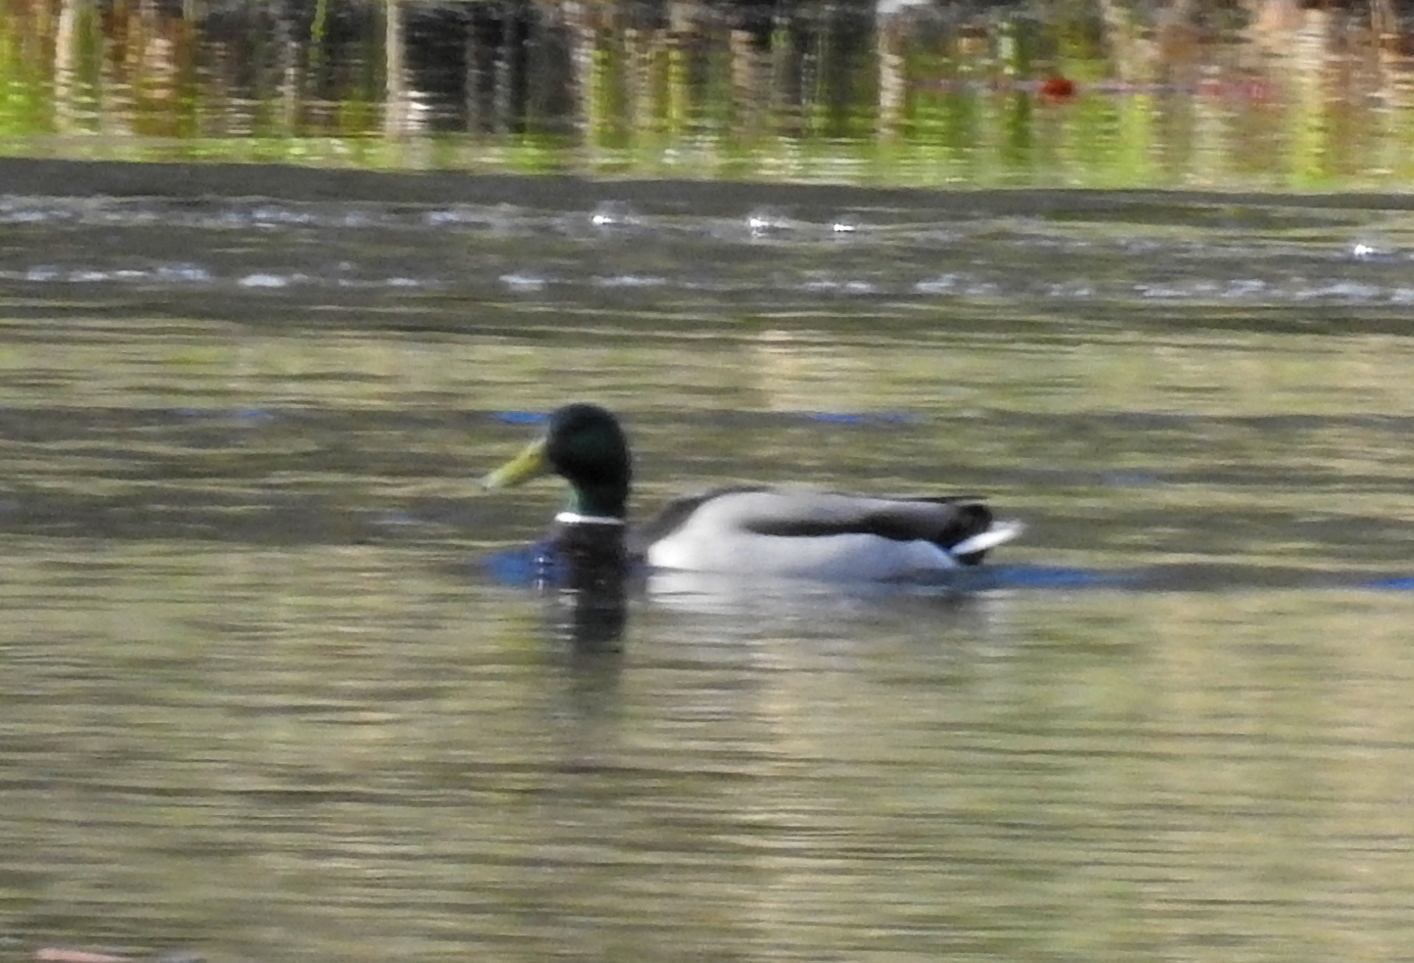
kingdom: Animalia
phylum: Chordata
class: Aves
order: Anseriformes
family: Anatidae
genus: Anas
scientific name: Anas platyrhynchos
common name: Mallard
